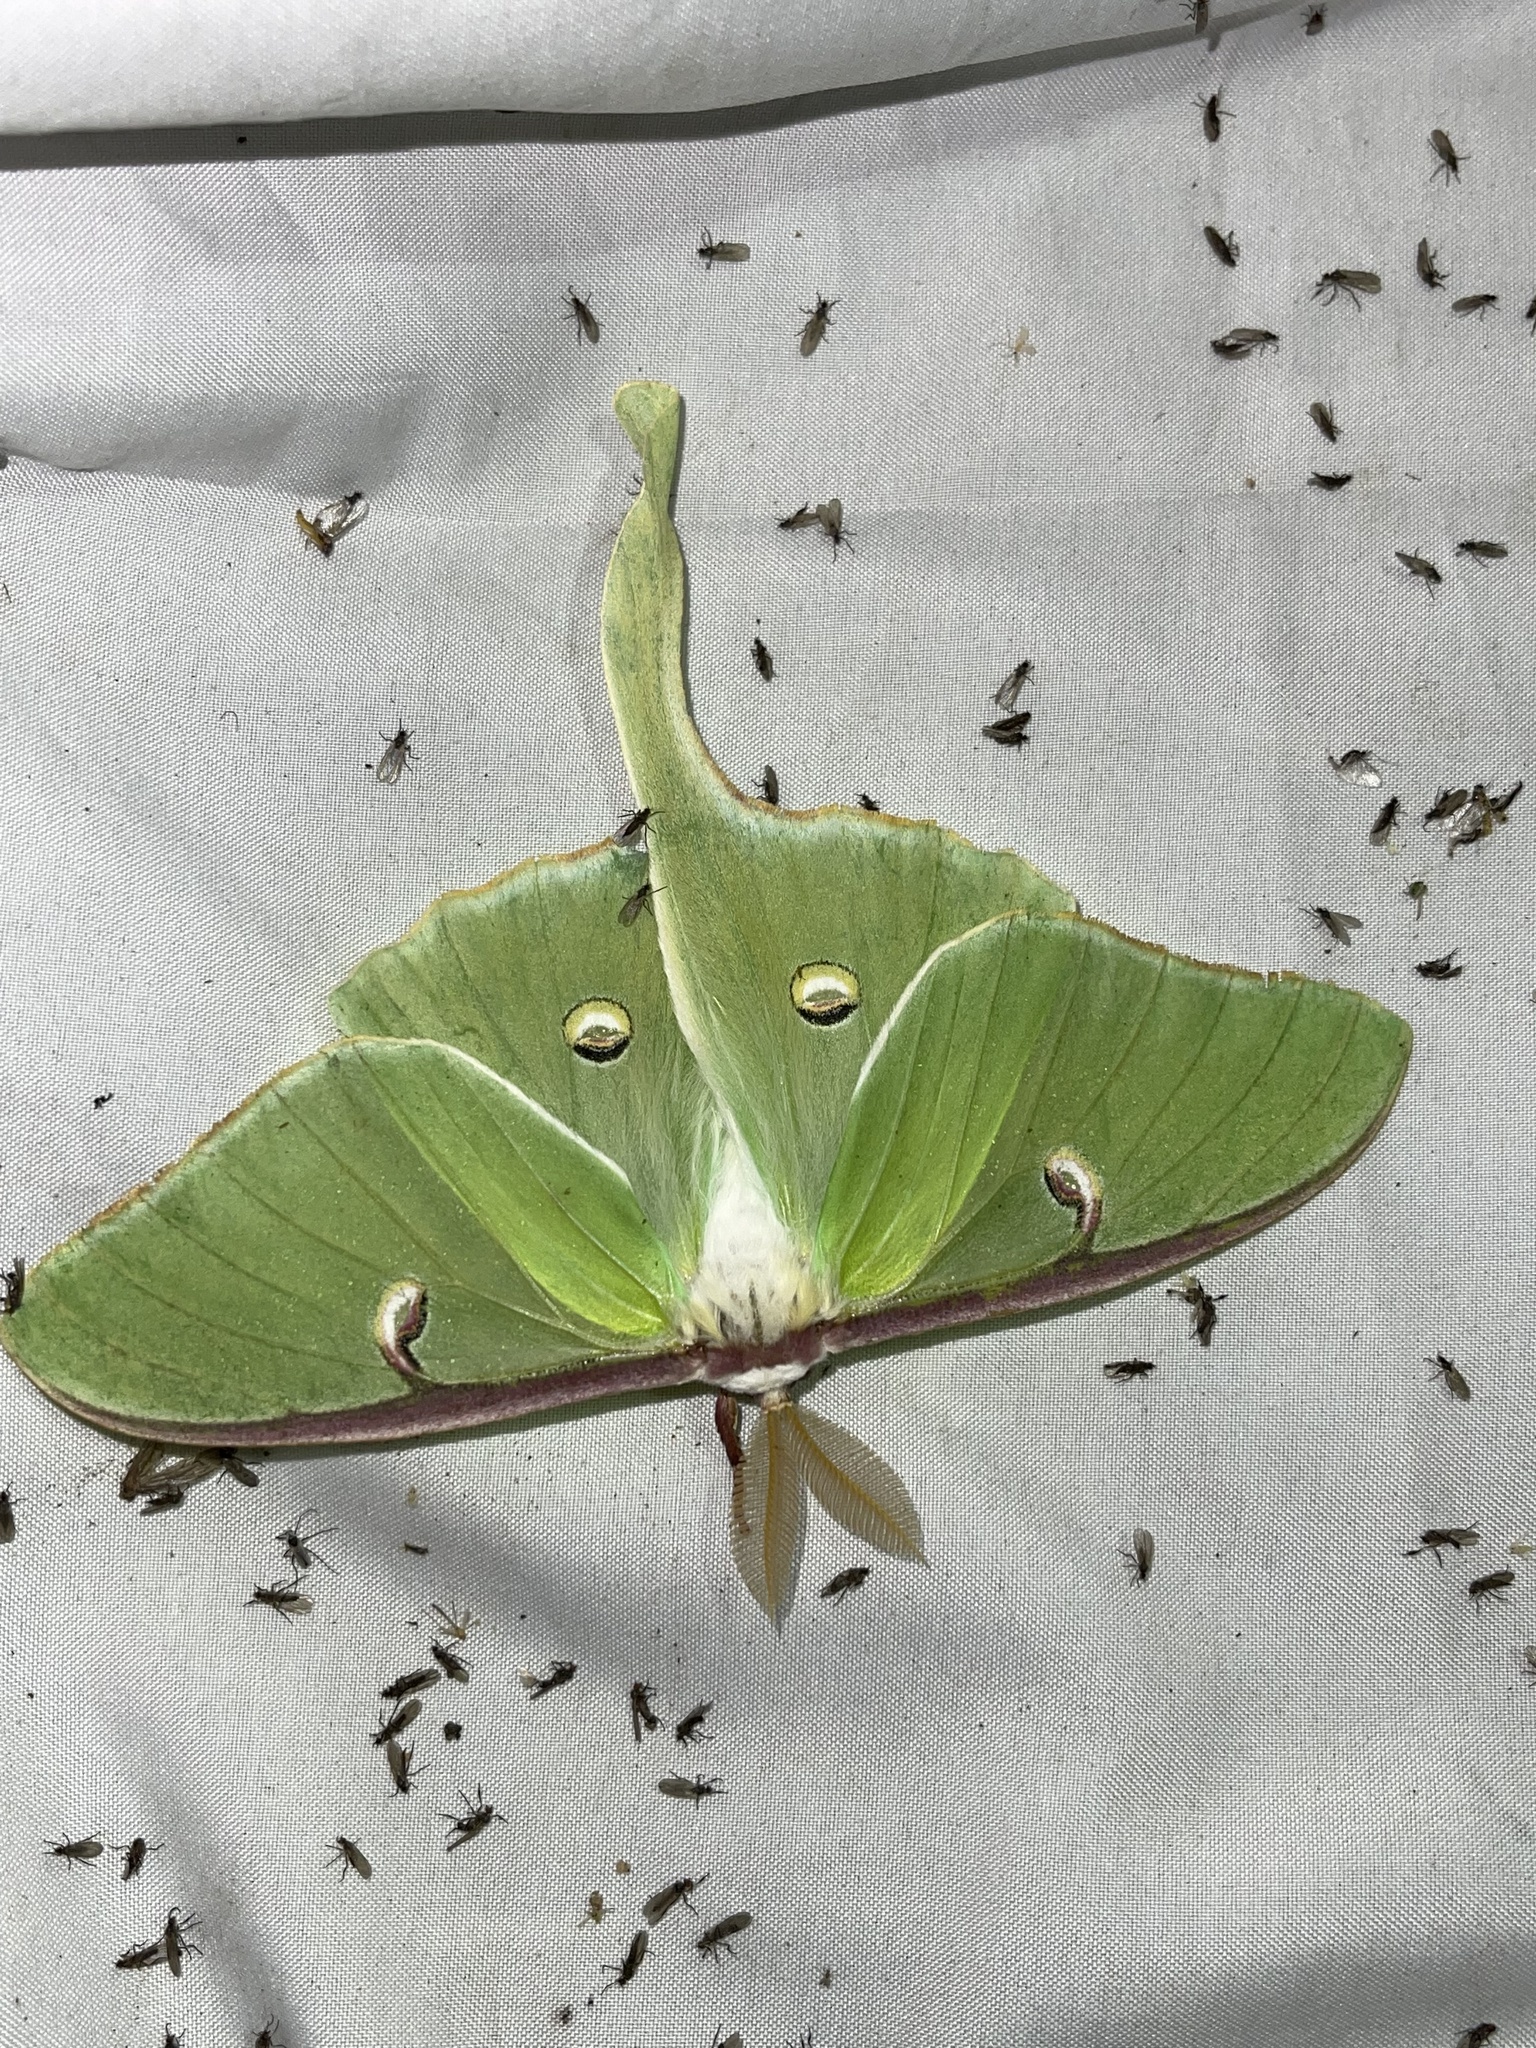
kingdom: Animalia
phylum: Arthropoda
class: Insecta
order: Lepidoptera
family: Saturniidae
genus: Actias
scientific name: Actias luna
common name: Luna moth
